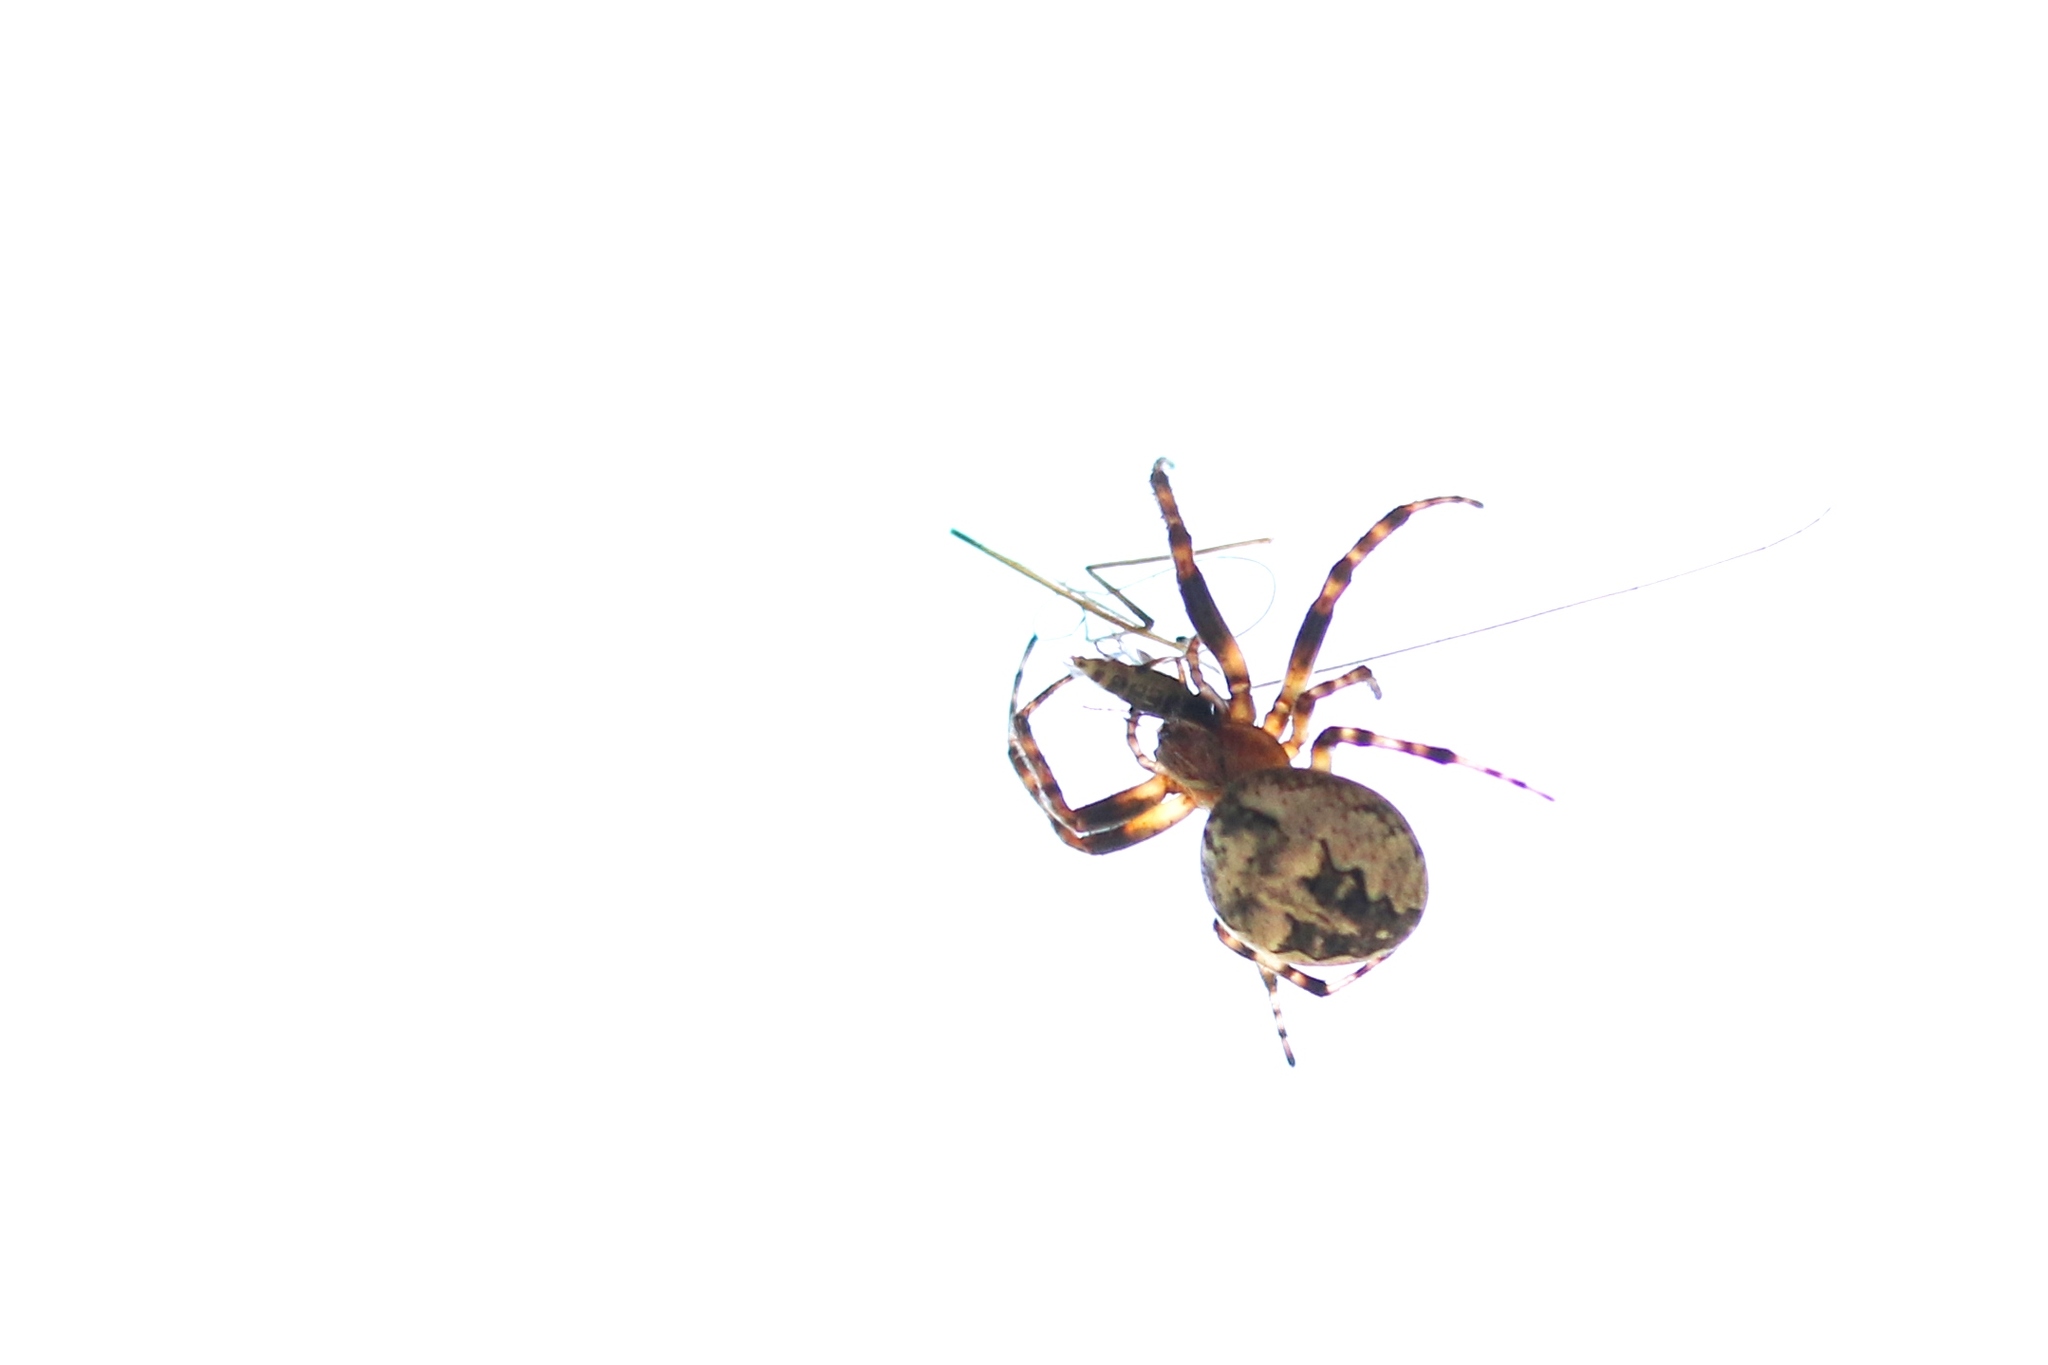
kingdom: Animalia
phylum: Arthropoda
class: Arachnida
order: Araneae
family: Araneidae
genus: Larinioides
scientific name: Larinioides patagiatus
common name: Ornamental orbweaver
